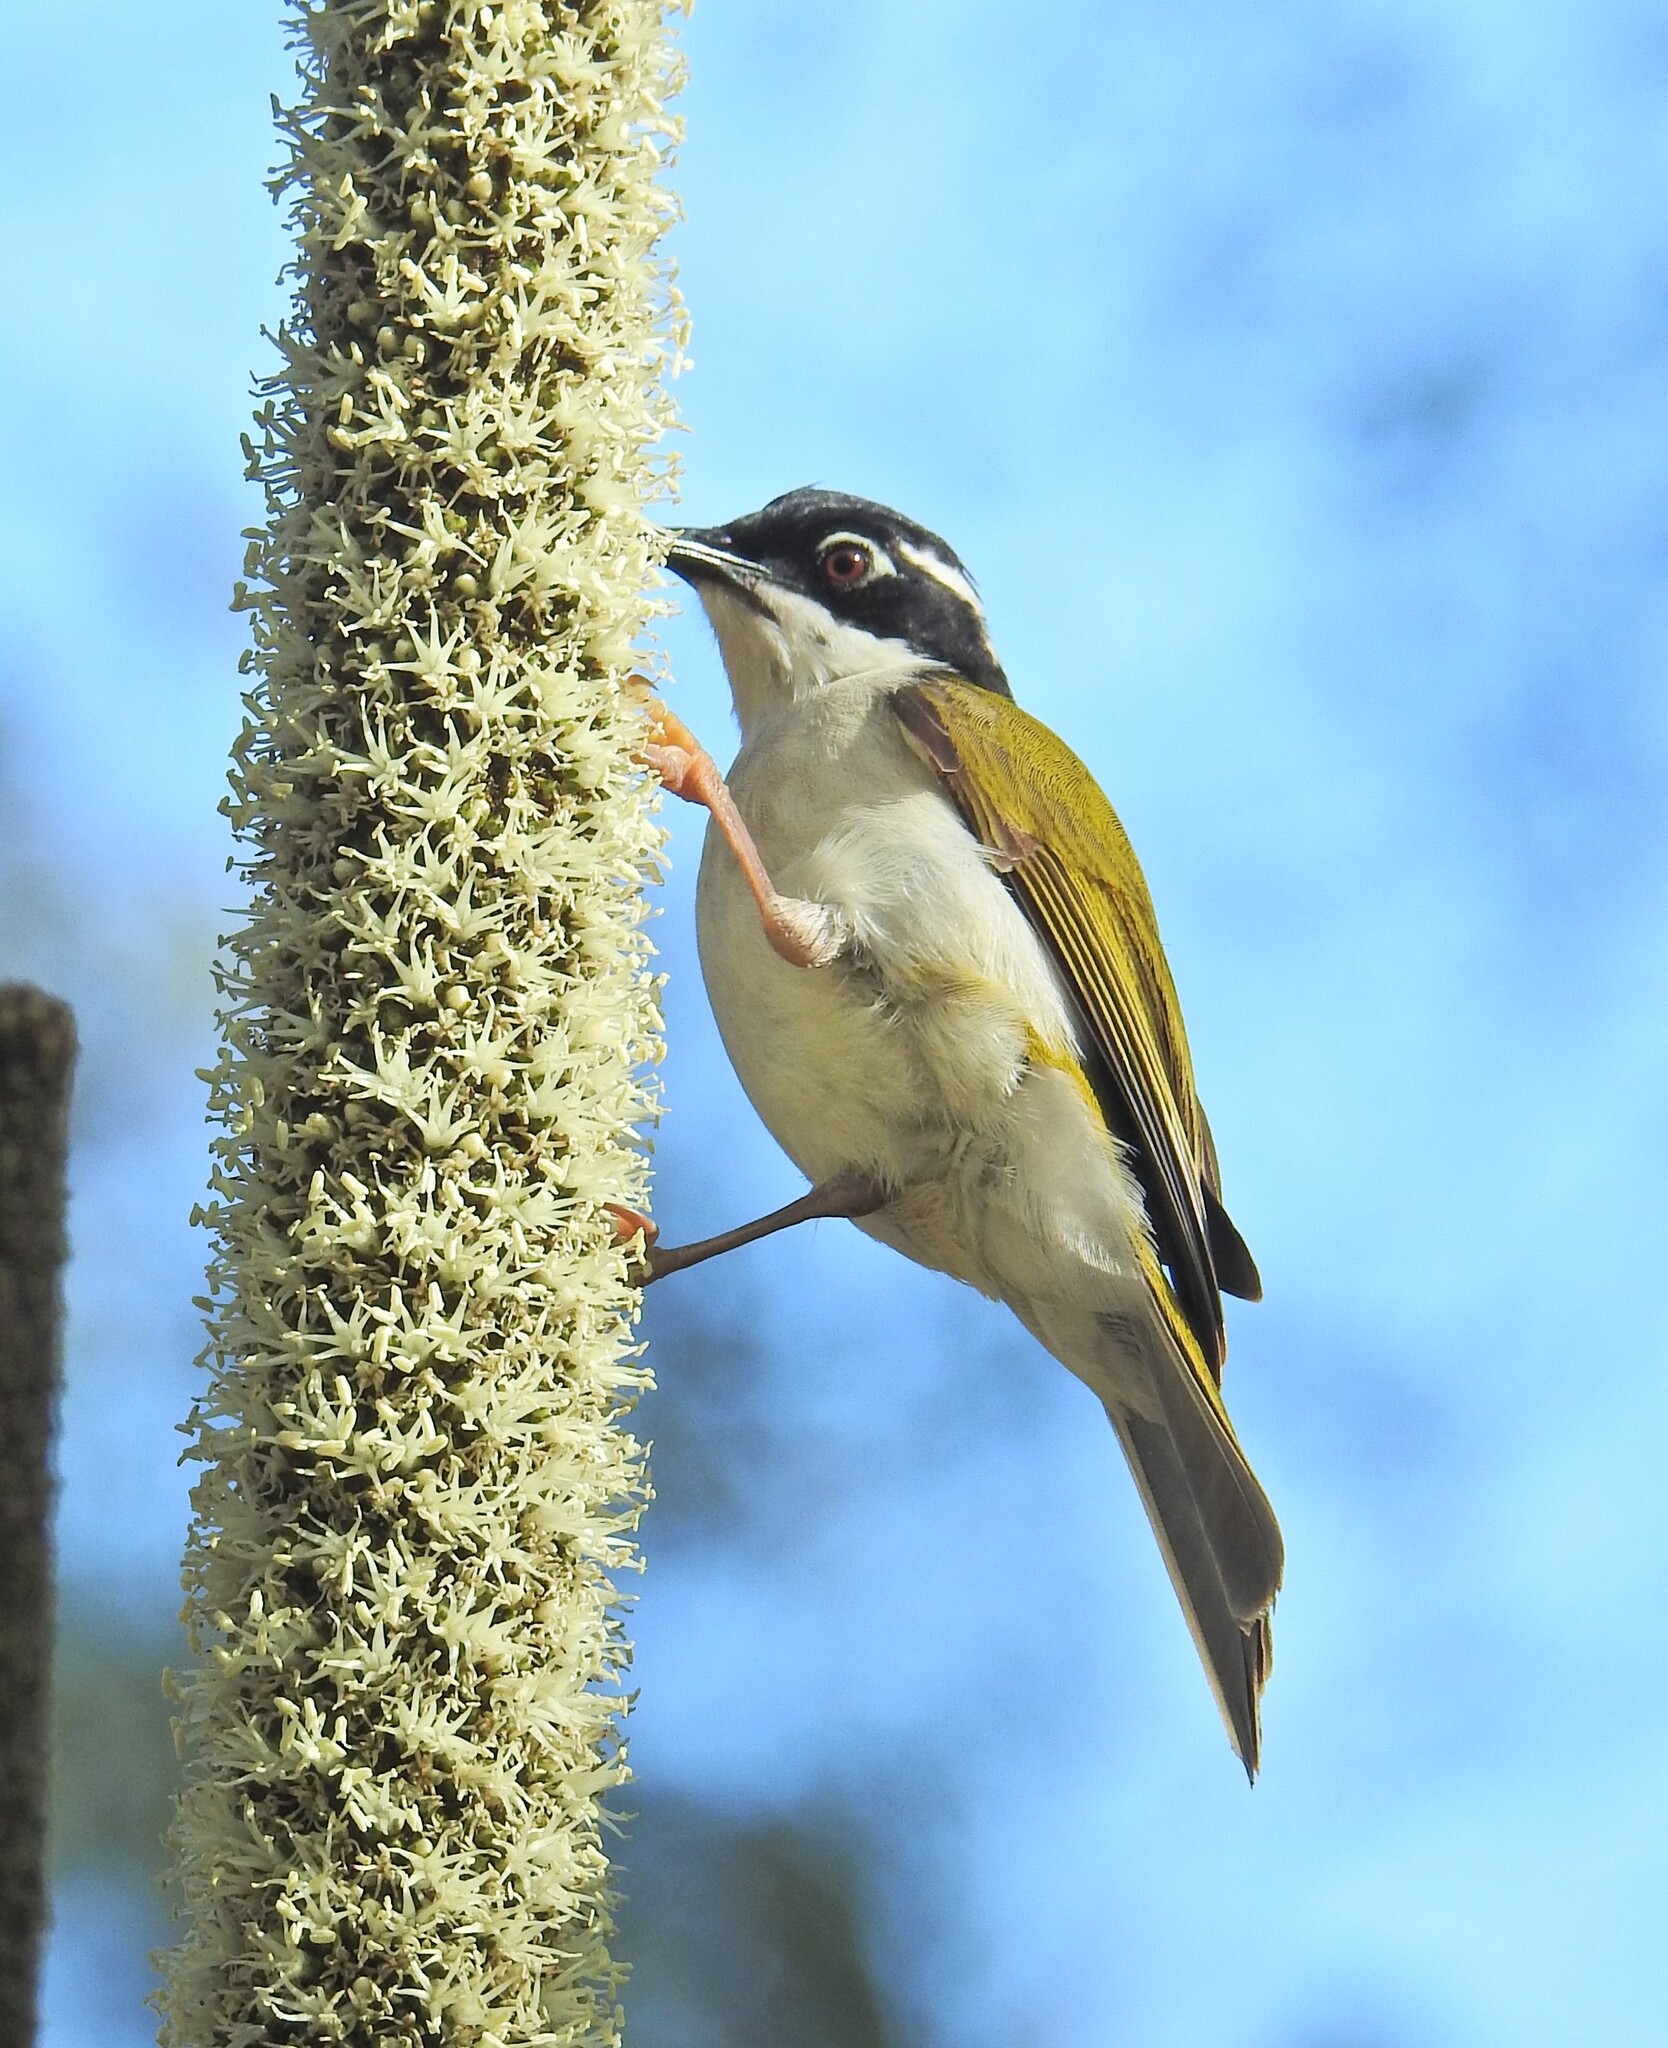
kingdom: Animalia
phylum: Chordata
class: Aves
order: Passeriformes
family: Meliphagidae
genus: Melithreptus
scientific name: Melithreptus albogularis
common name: White-throated honeyeater
